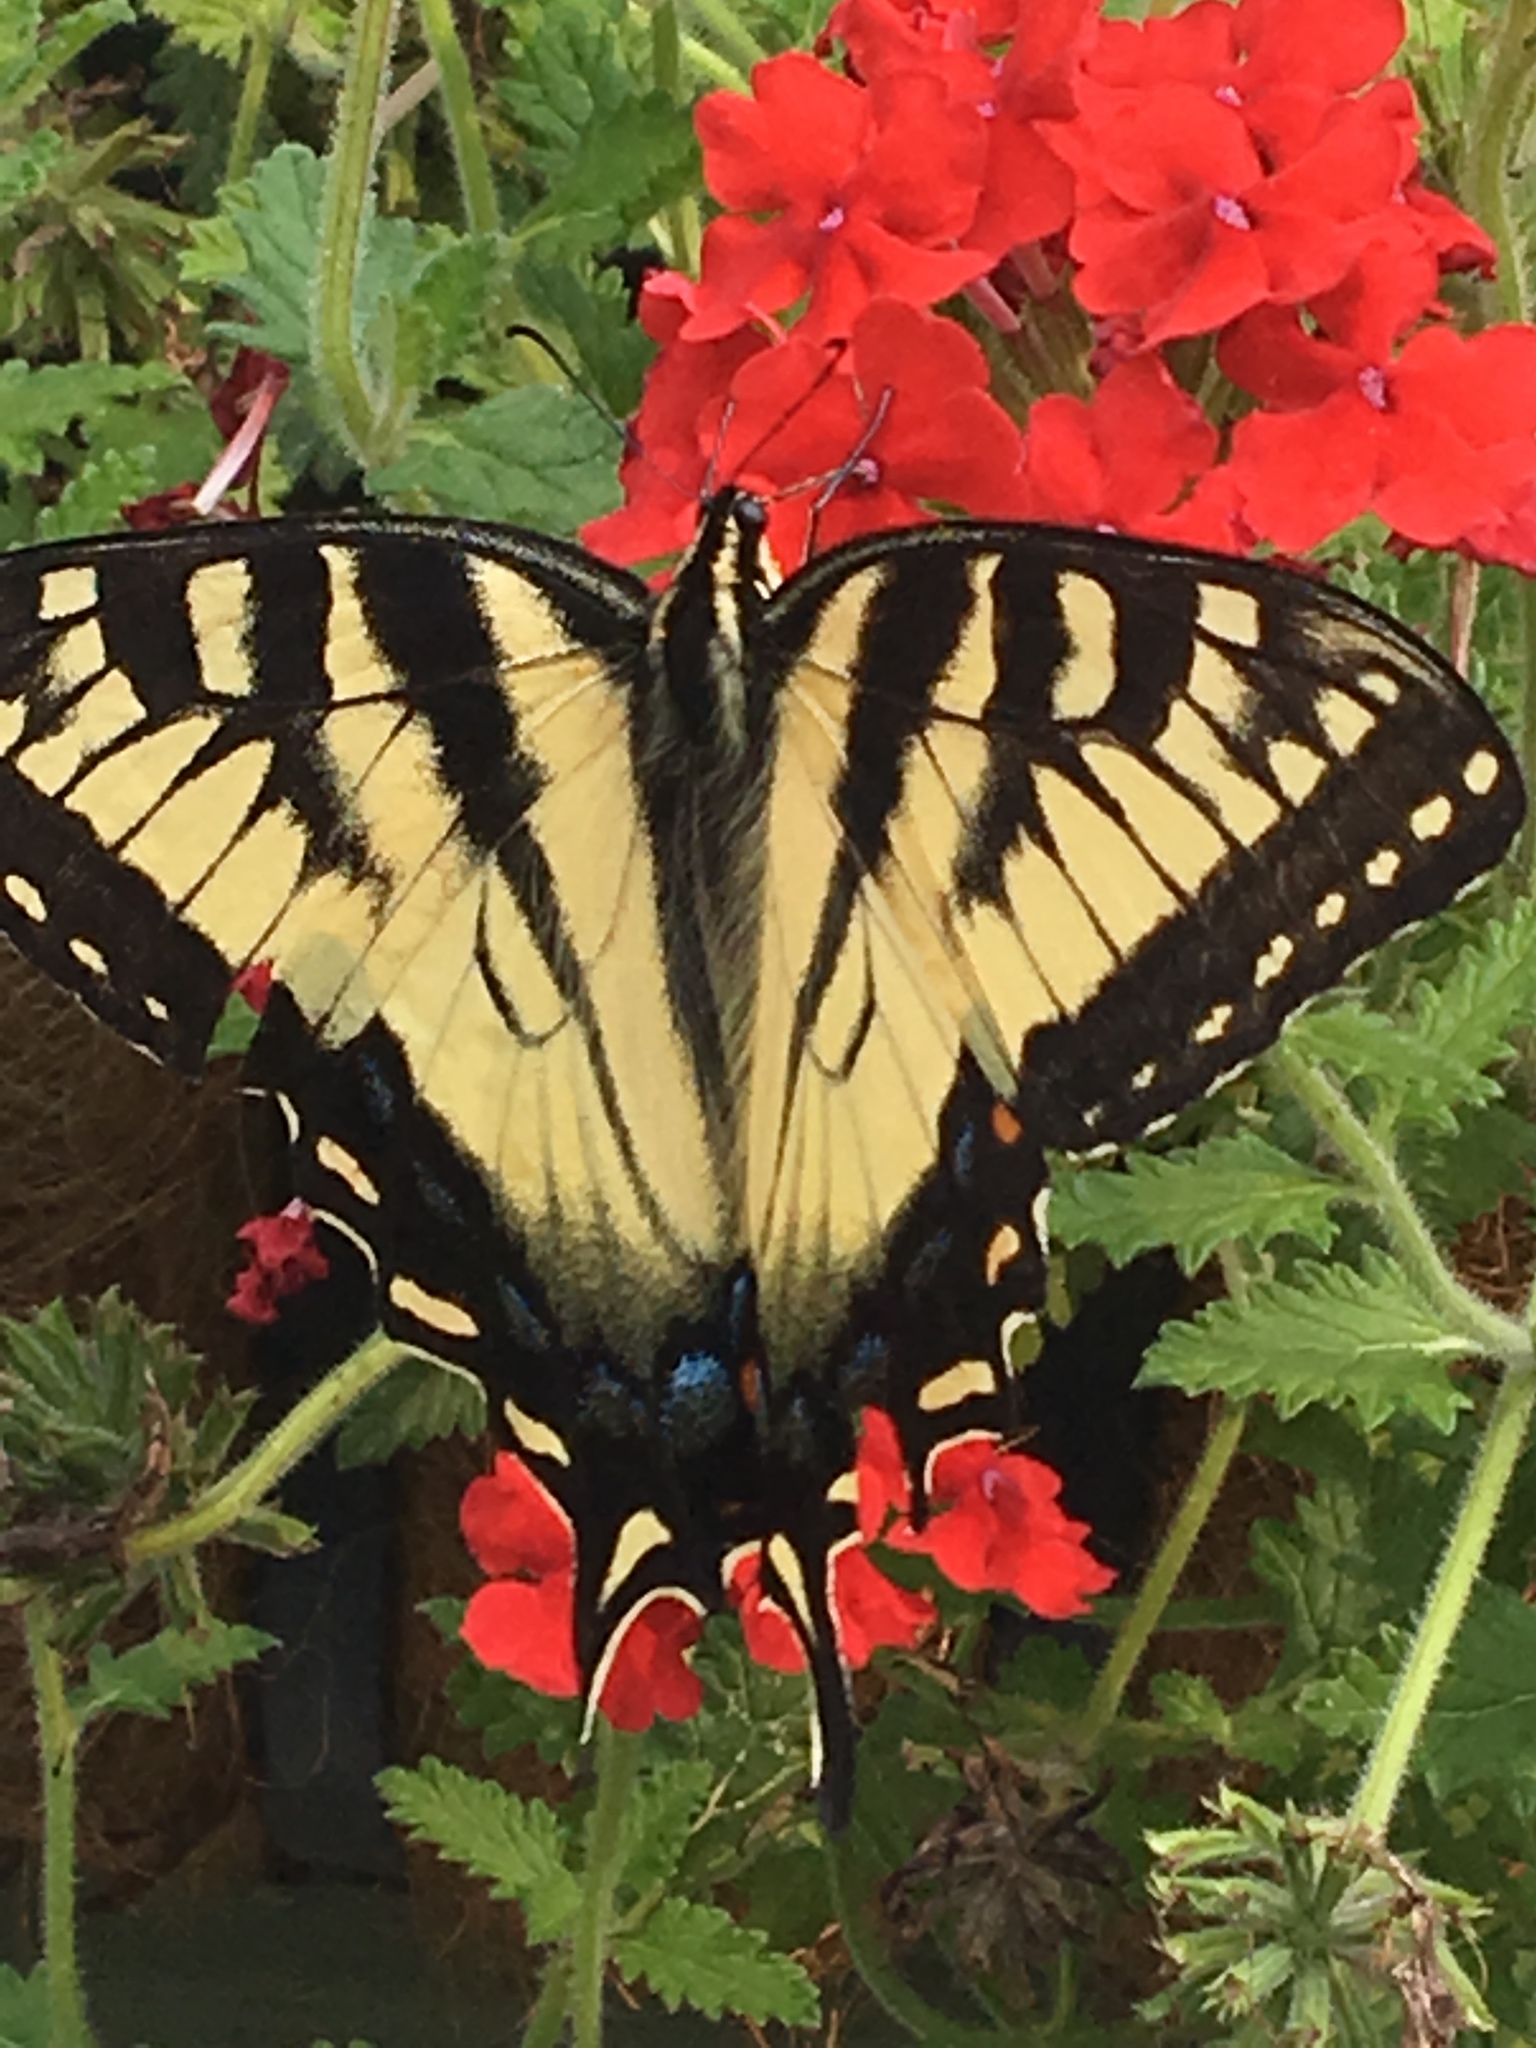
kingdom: Animalia
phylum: Arthropoda
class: Insecta
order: Lepidoptera
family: Papilionidae
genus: Papilio
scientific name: Papilio glaucus
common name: Tiger swallowtail
